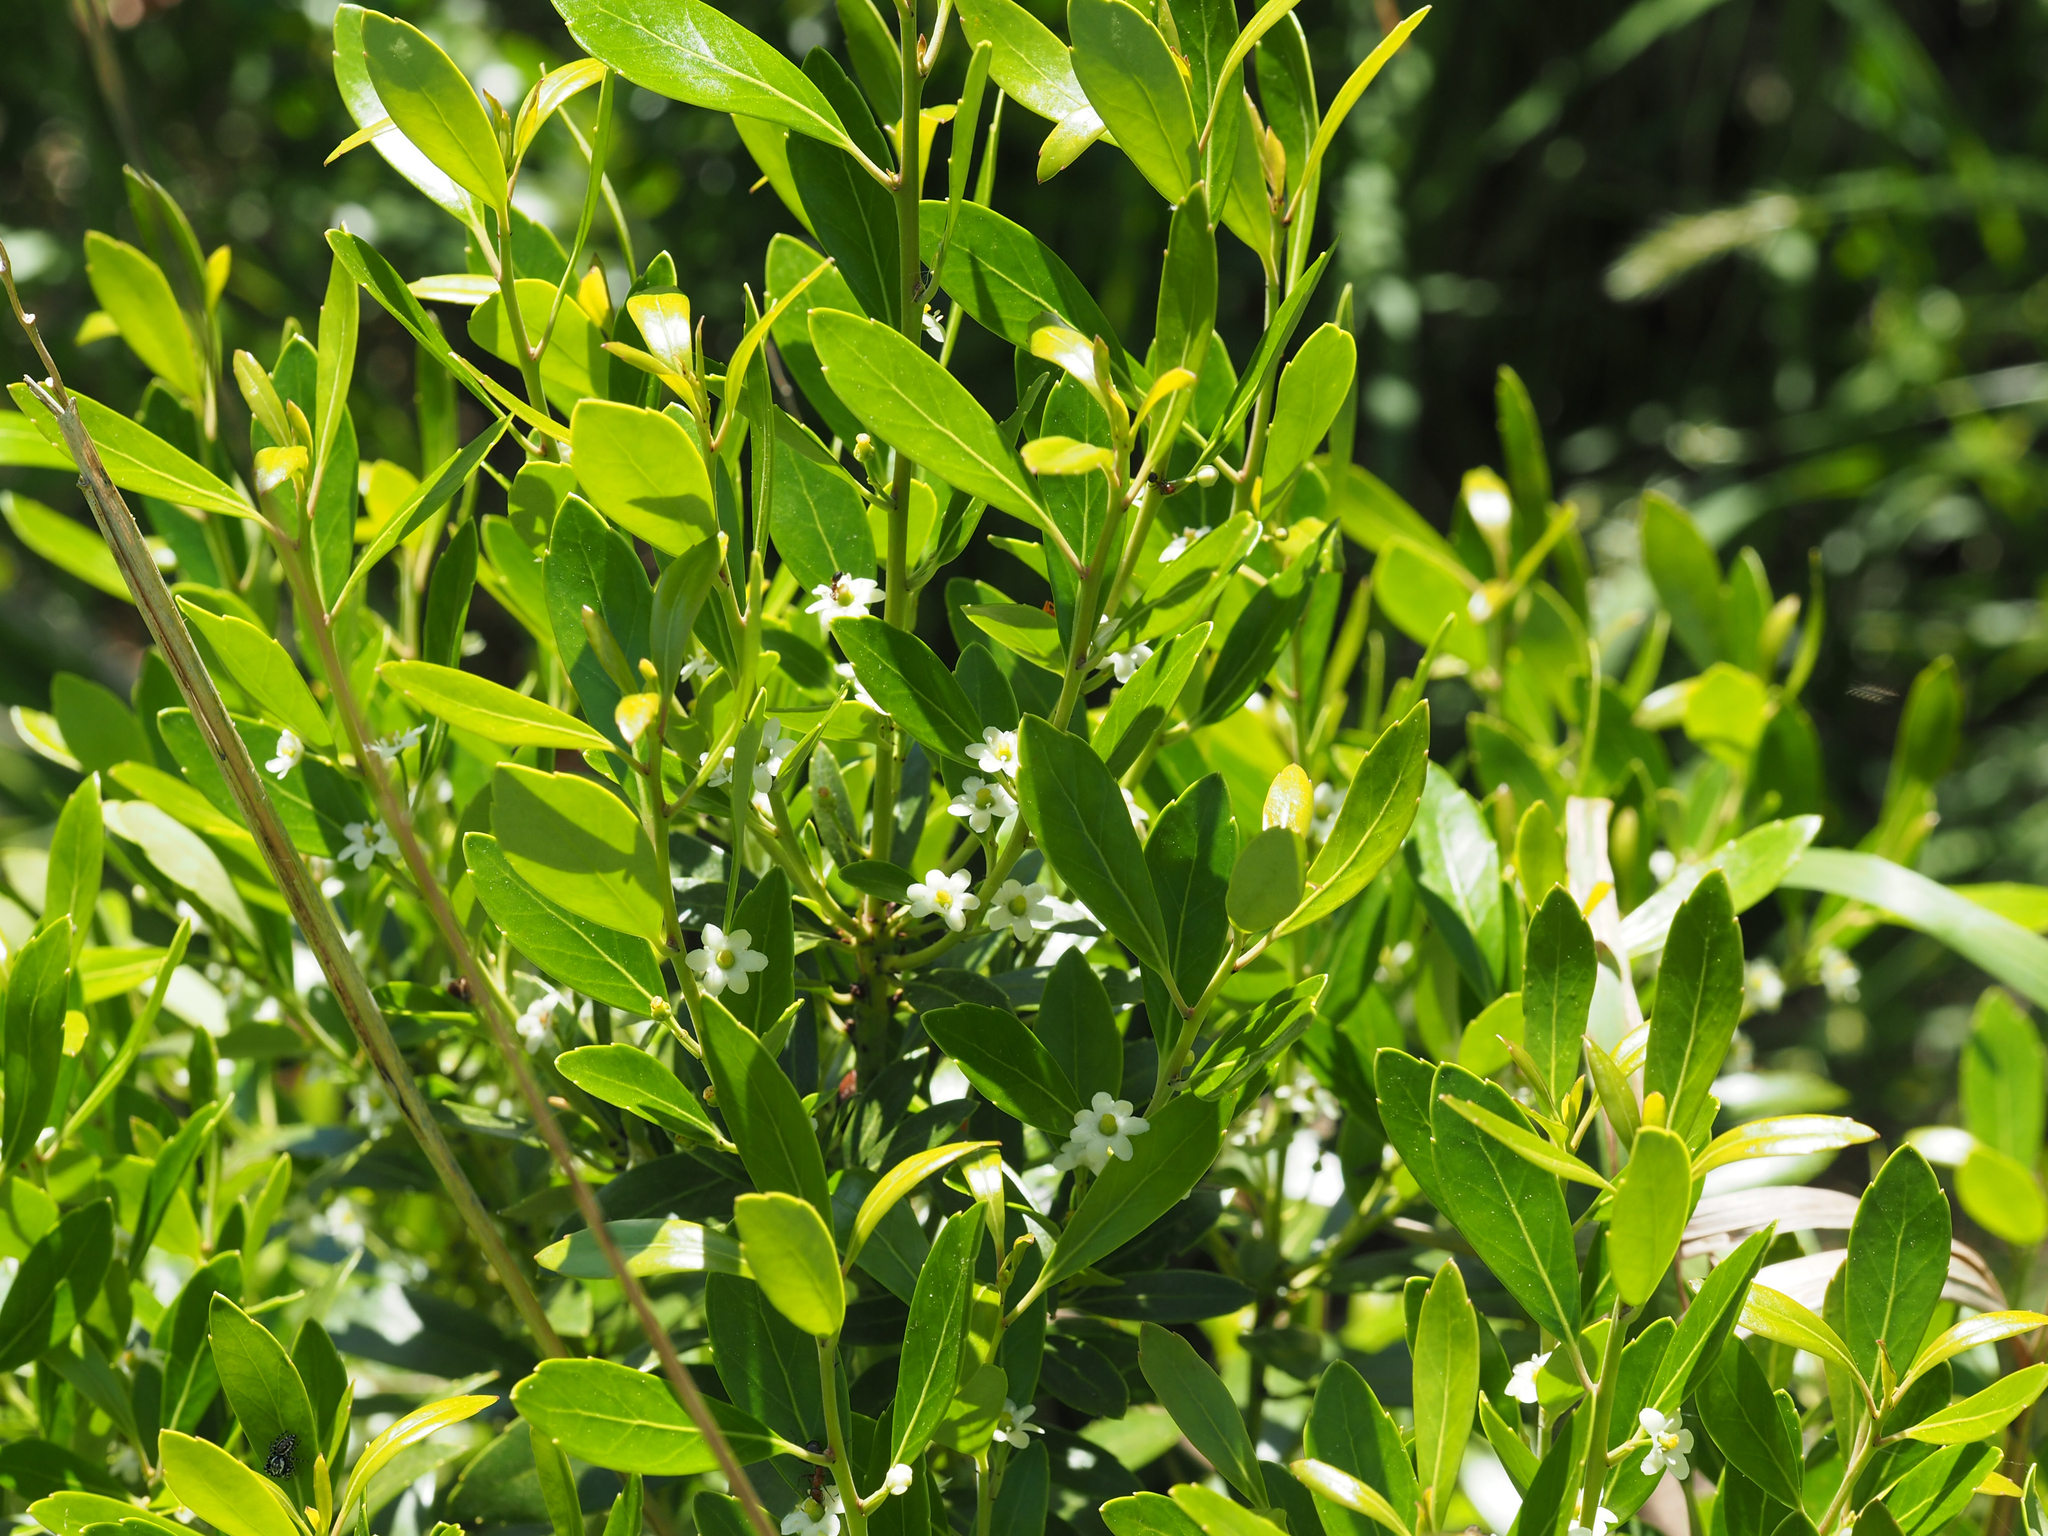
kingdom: Plantae
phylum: Tracheophyta
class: Magnoliopsida
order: Aquifoliales
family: Aquifoliaceae
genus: Ilex
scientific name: Ilex glabra
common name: Bitter gallberry
